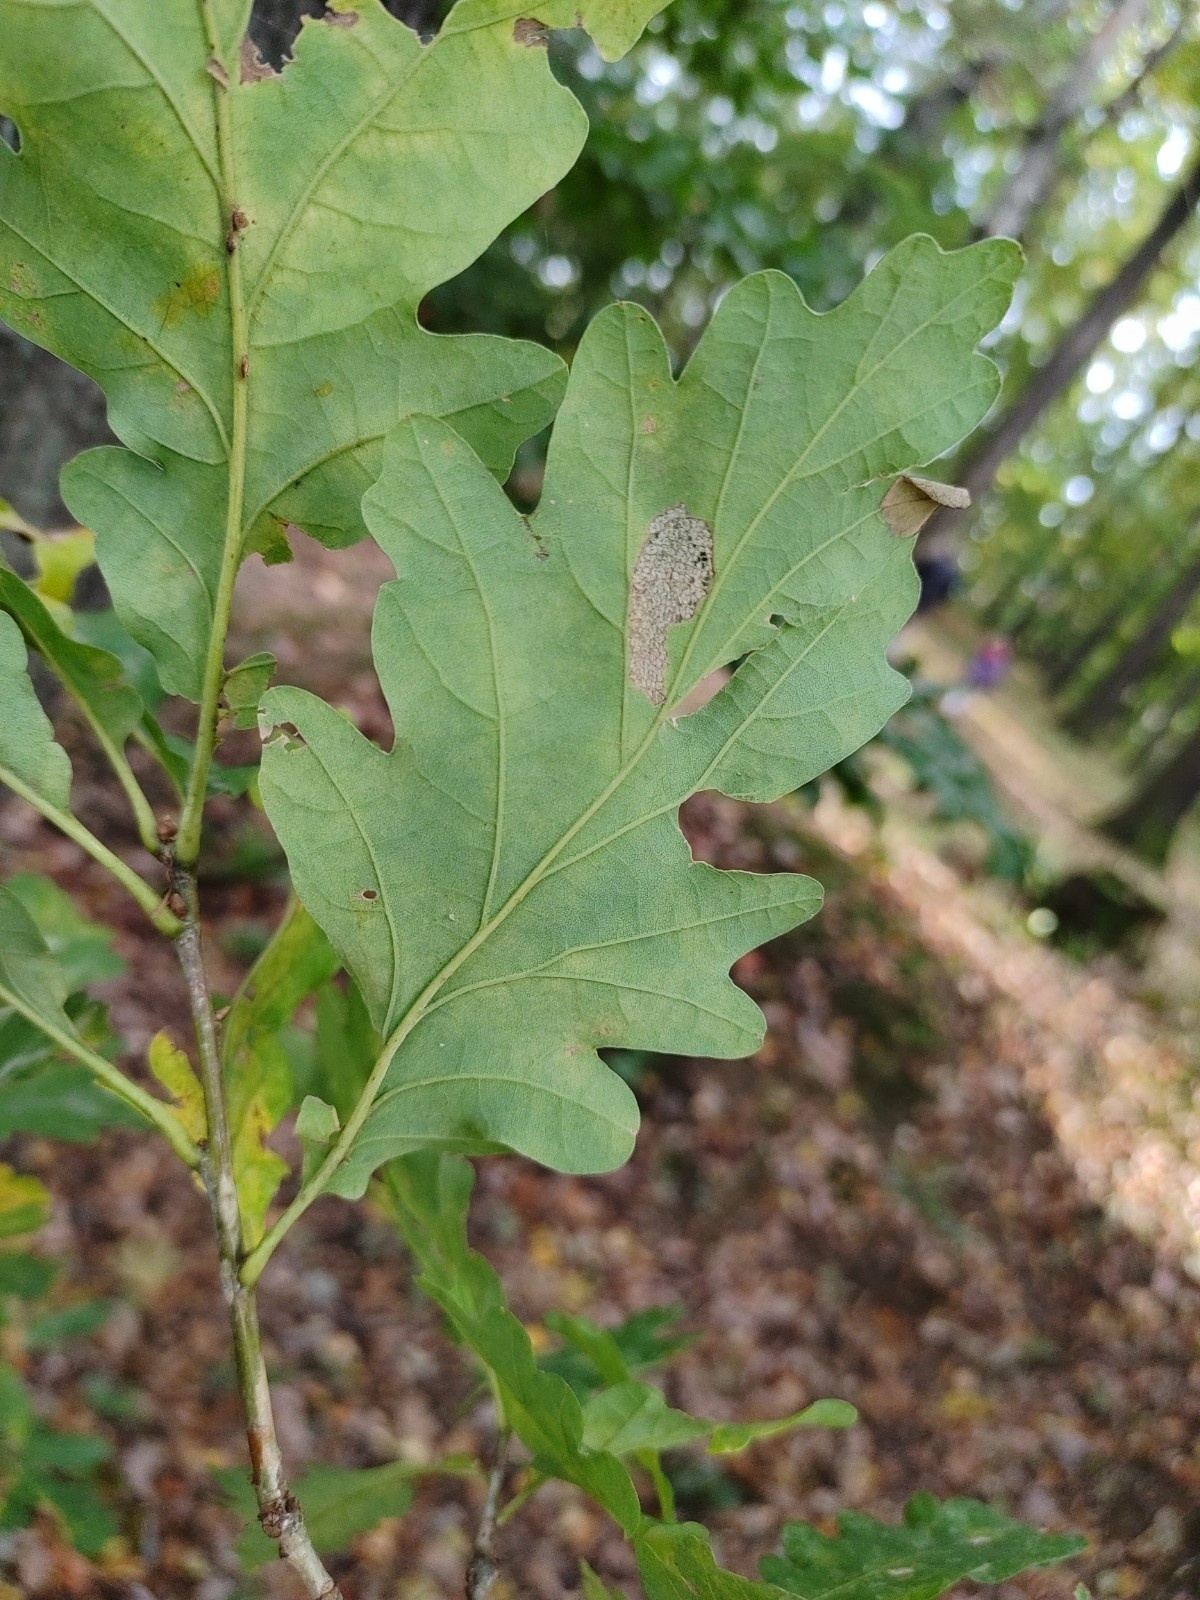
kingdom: Plantae
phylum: Tracheophyta
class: Magnoliopsida
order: Fagales
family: Fagaceae
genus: Quercus
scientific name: Quercus petraea
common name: Sessile oak
